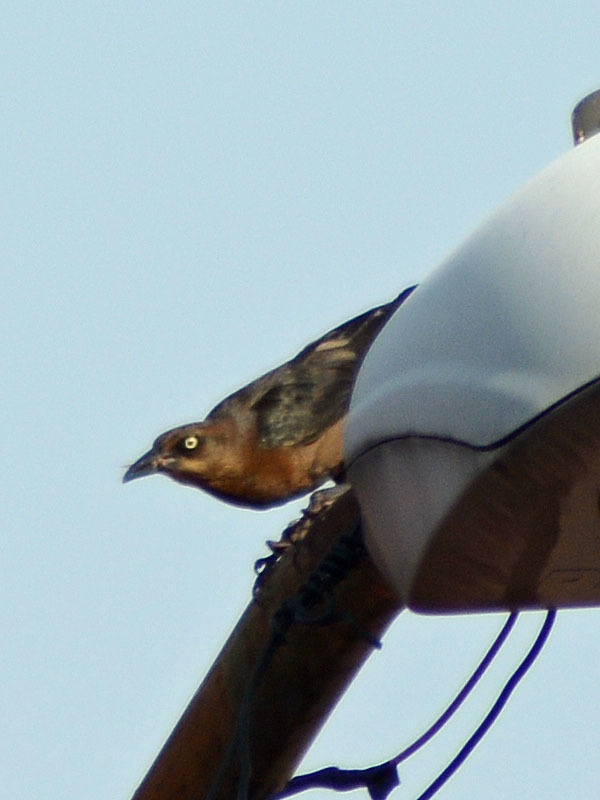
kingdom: Animalia
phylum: Chordata
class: Aves
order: Passeriformes
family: Icteridae
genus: Quiscalus
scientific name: Quiscalus mexicanus
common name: Great-tailed grackle
